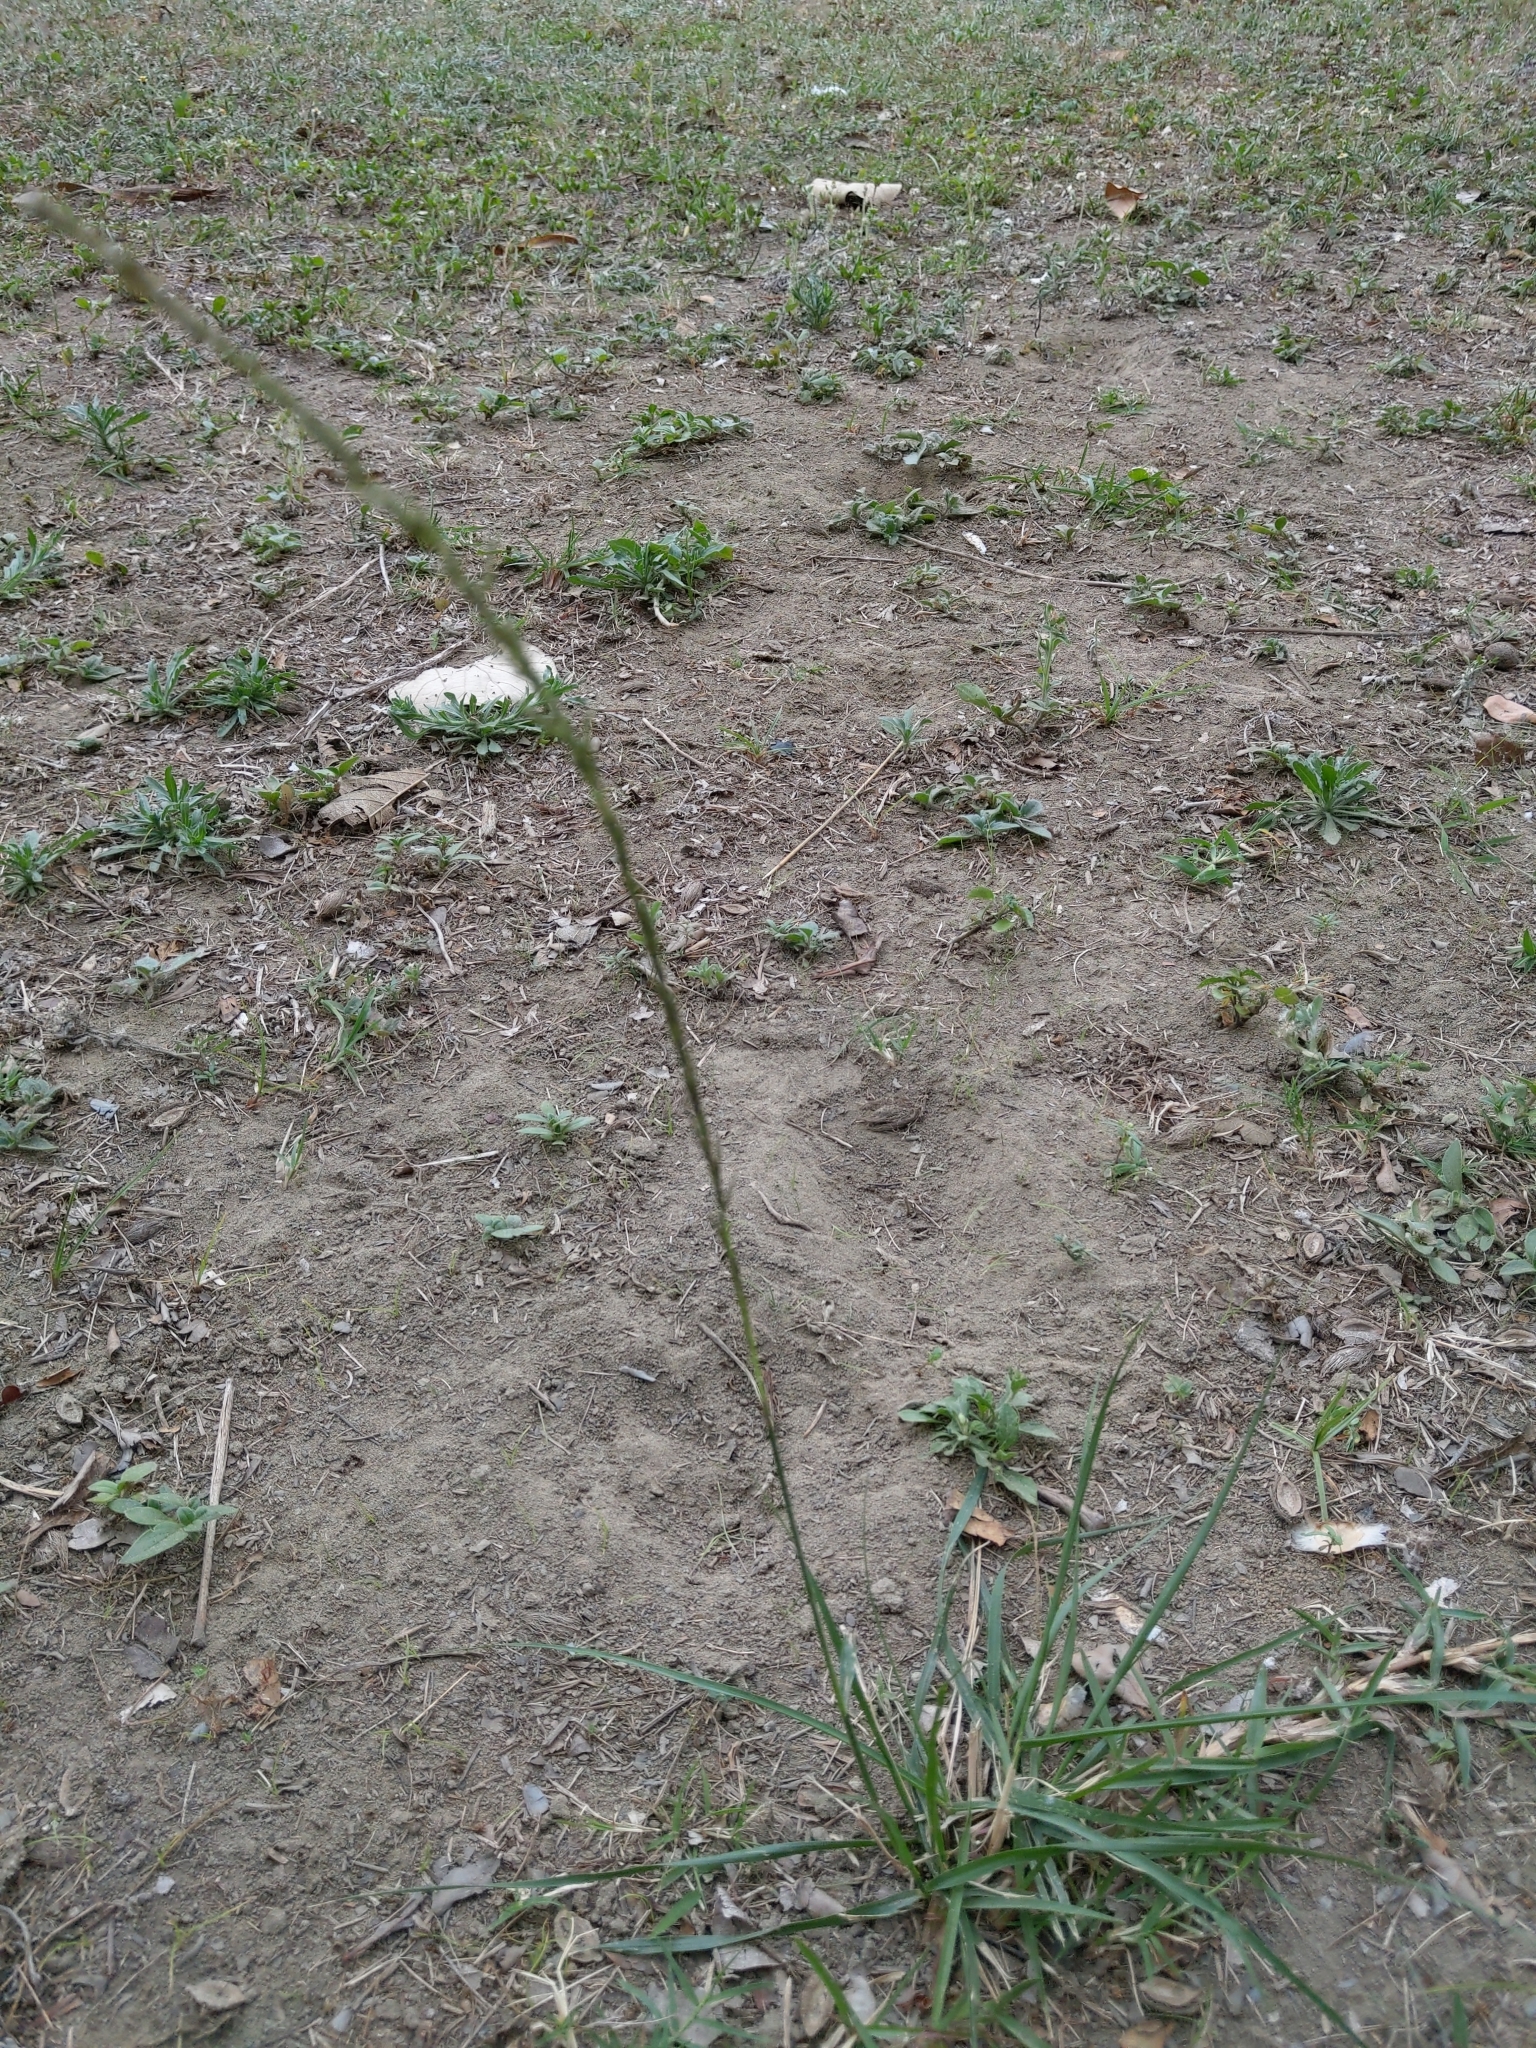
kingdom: Plantae
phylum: Tracheophyta
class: Liliopsida
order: Poales
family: Poaceae
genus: Sporobolus
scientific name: Sporobolus indicus
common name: Smut grass
